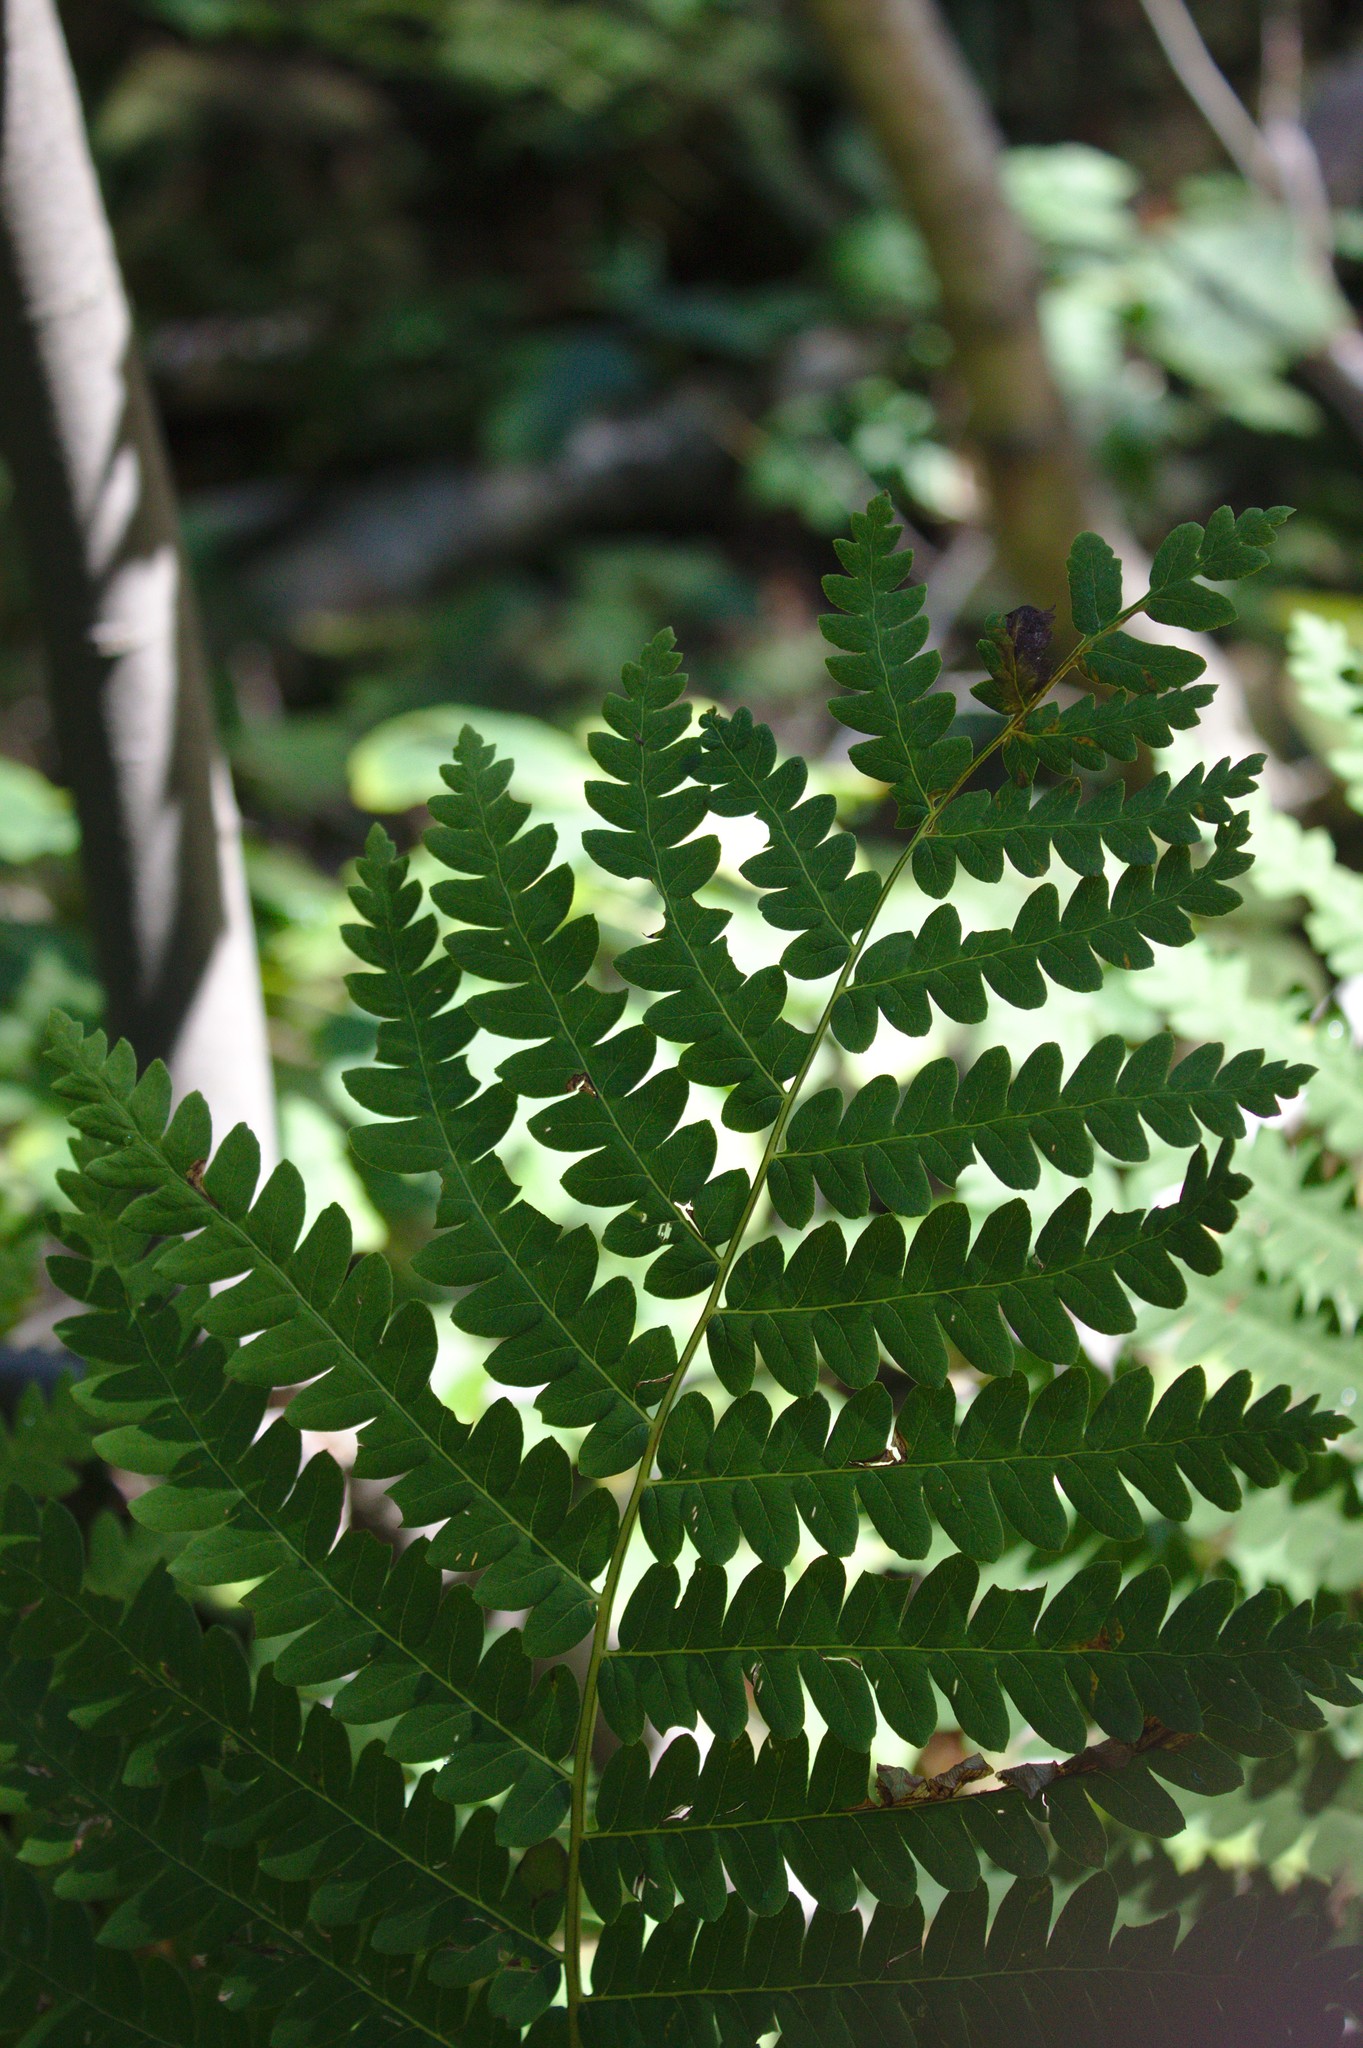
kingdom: Plantae
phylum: Tracheophyta
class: Polypodiopsida
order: Osmundales
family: Osmundaceae
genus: Osmundastrum
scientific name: Osmundastrum cinnamomeum
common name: Cinnamon fern
